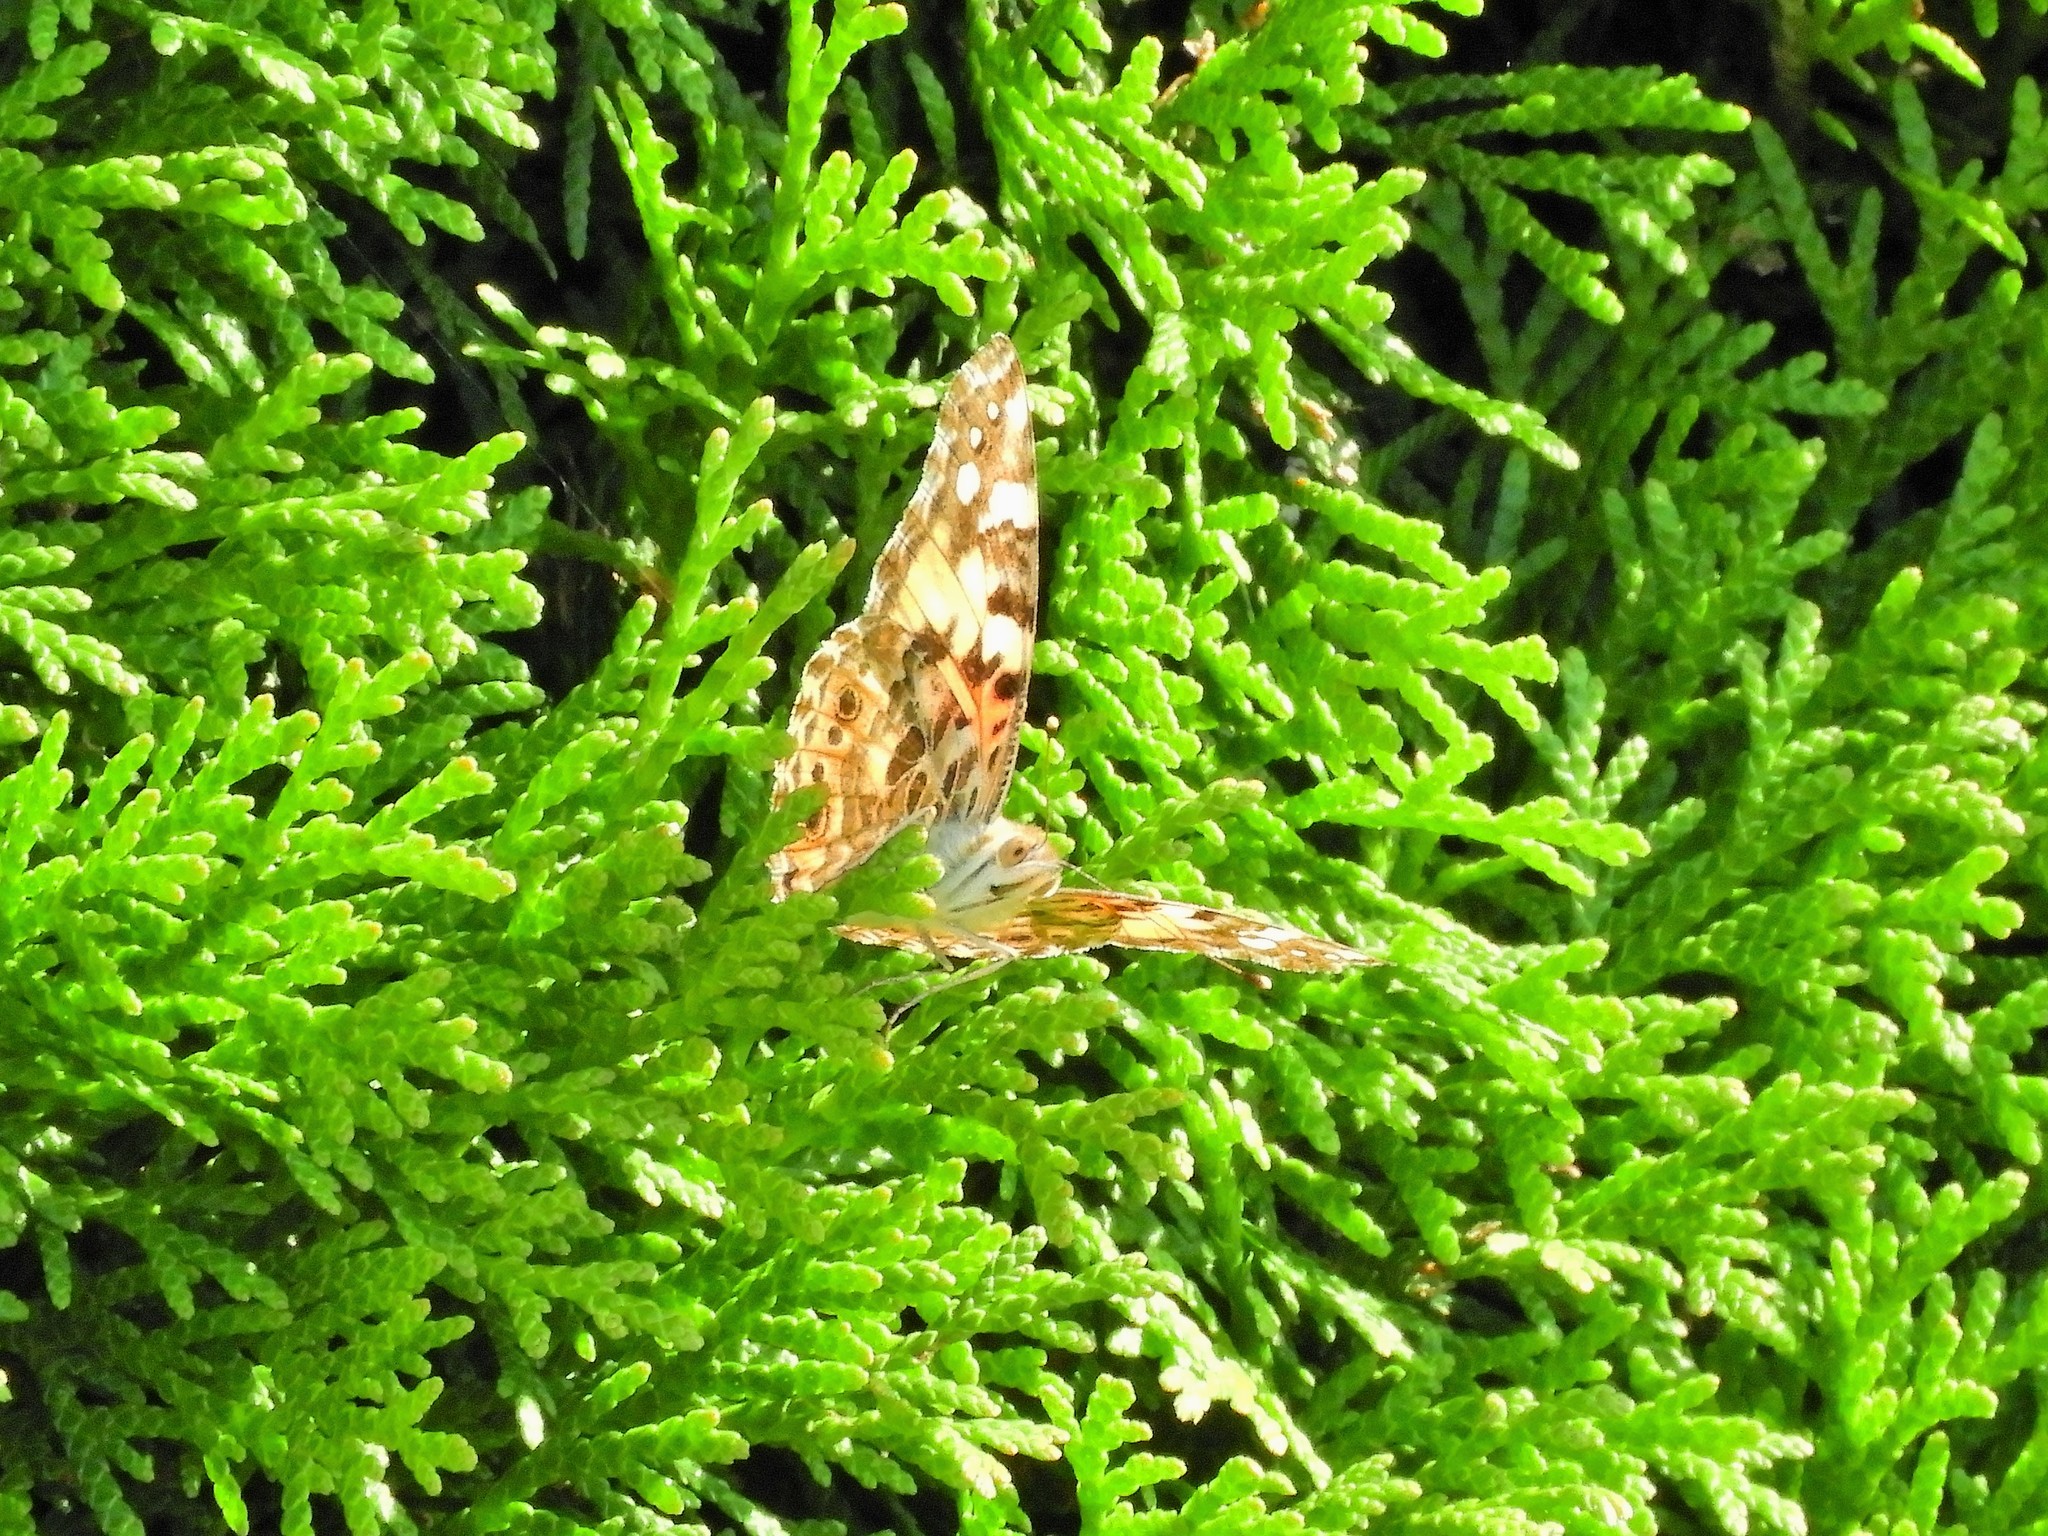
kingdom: Animalia
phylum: Arthropoda
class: Insecta
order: Lepidoptera
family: Nymphalidae
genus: Vanessa
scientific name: Vanessa cardui
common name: Painted lady
